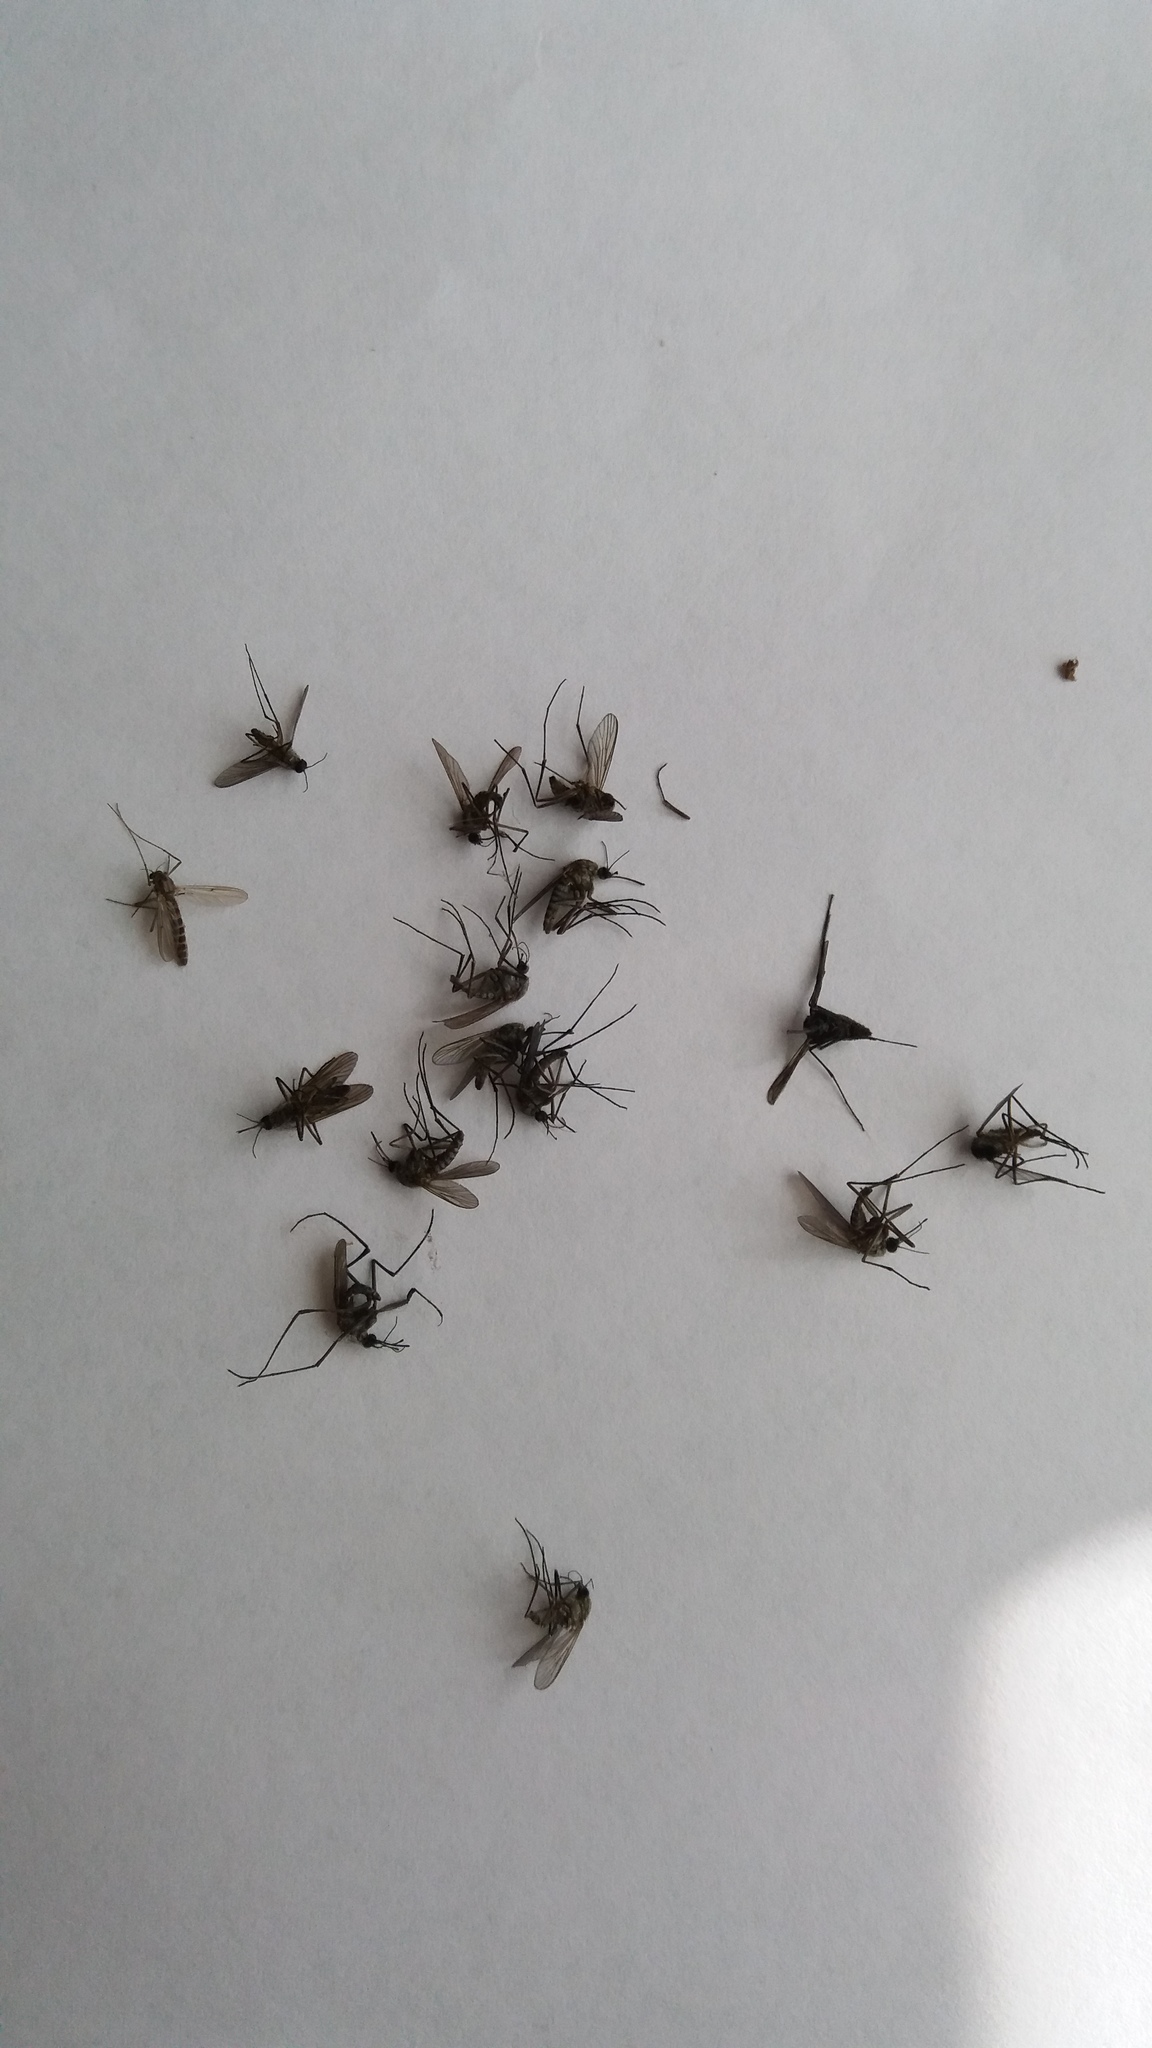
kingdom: Animalia
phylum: Arthropoda
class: Insecta
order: Diptera
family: Culicidae
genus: Opifex
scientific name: Opifex fuscus
